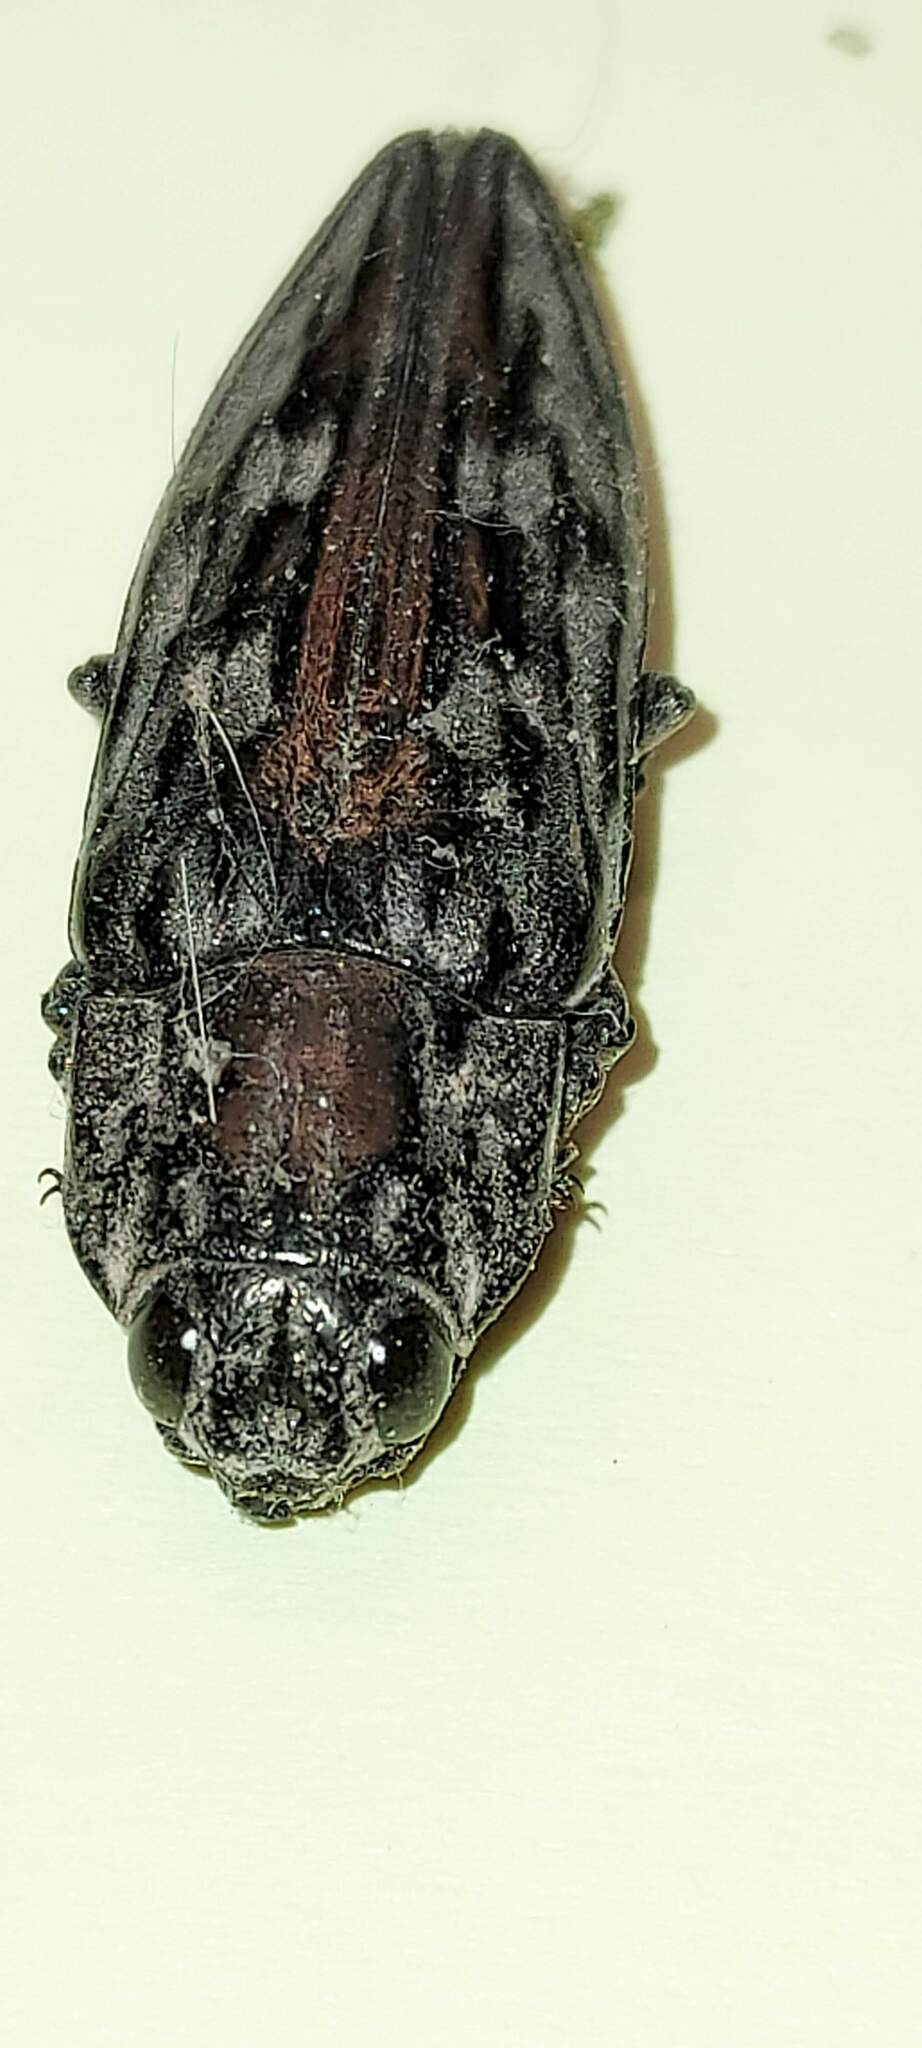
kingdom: Animalia
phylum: Arthropoda
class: Insecta
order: Coleoptera
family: Buprestidae
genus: Chalcophora
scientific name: Chalcophora virginiensis
